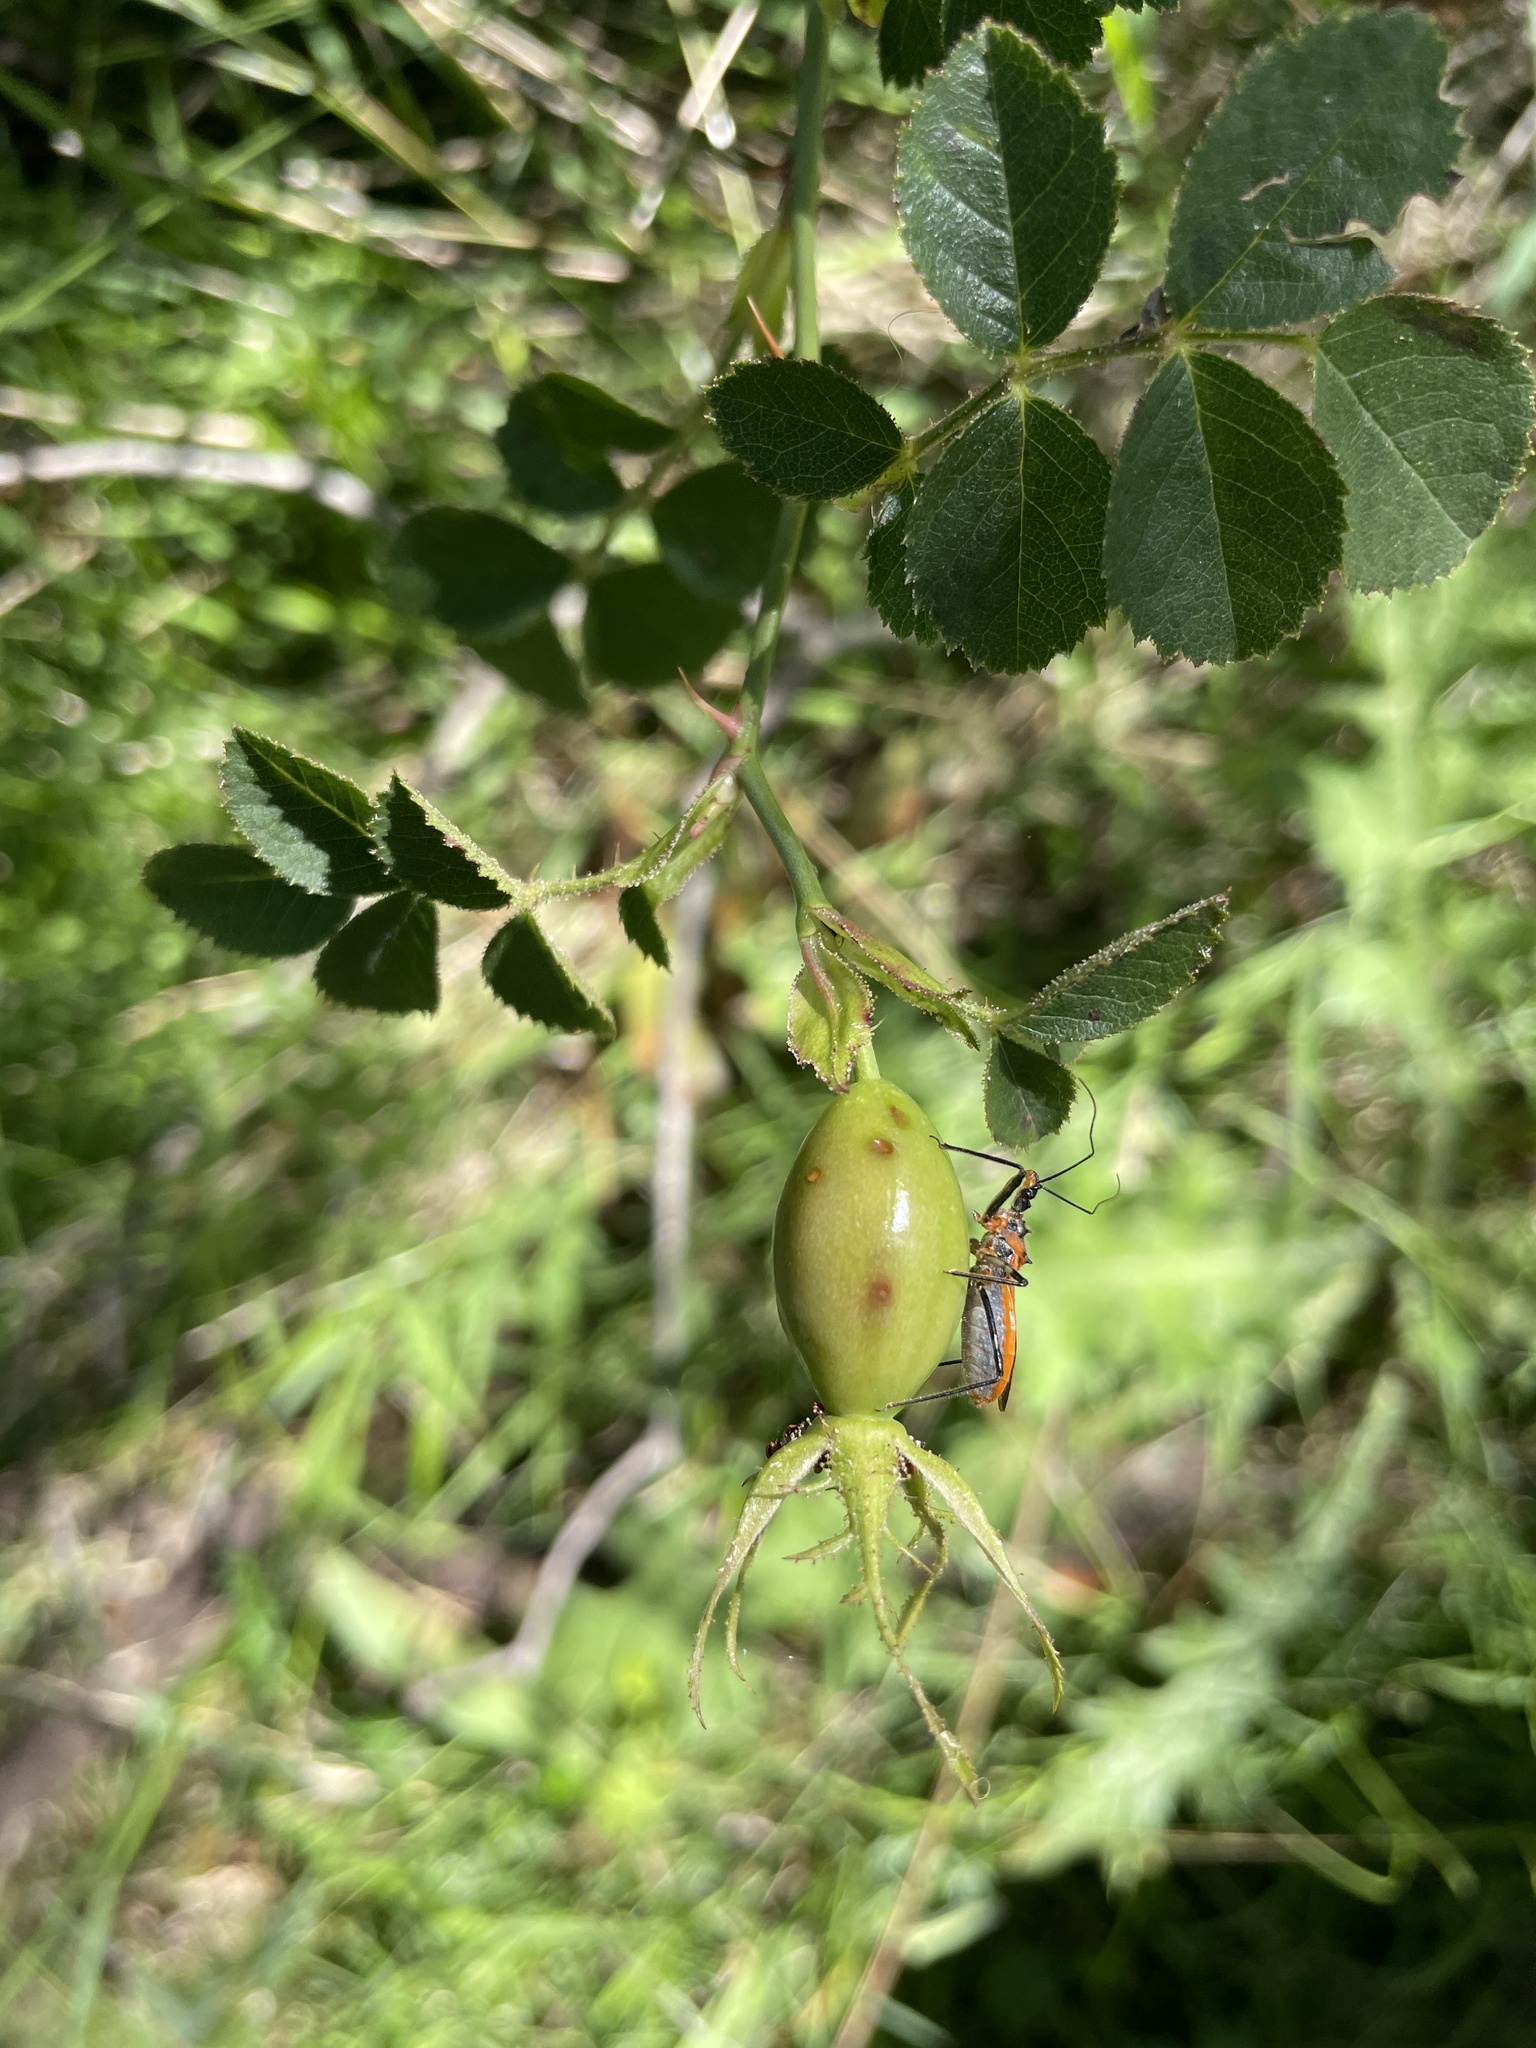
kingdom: Plantae
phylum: Tracheophyta
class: Magnoliopsida
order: Rosales
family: Rosaceae
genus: Rosa
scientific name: Rosa
